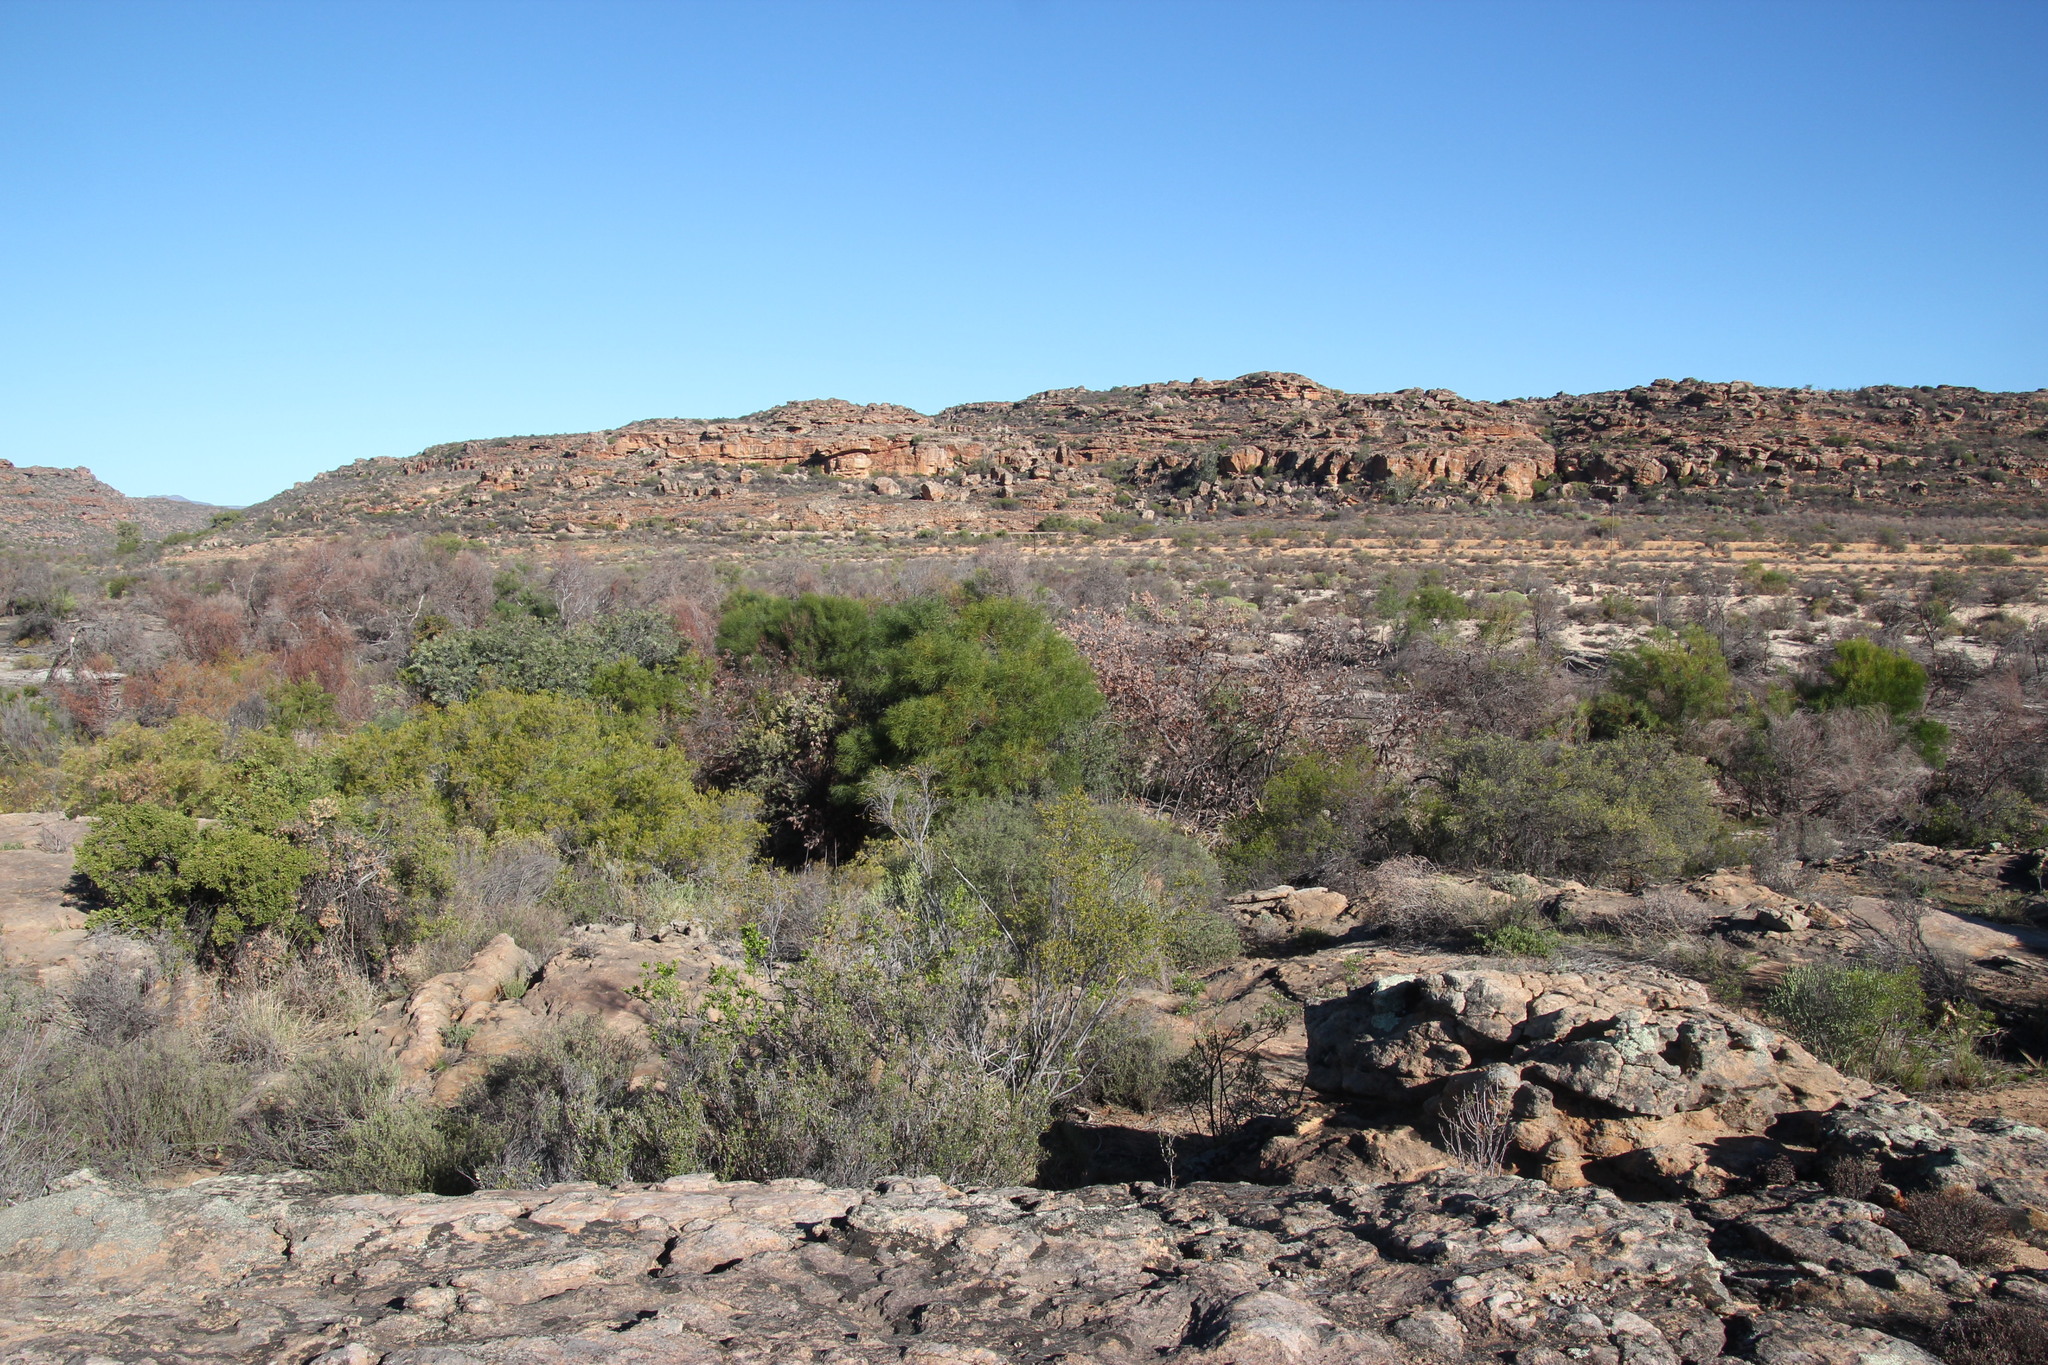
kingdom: Plantae
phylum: Tracheophyta
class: Magnoliopsida
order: Fabales
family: Fabaceae
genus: Acacia
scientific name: Acacia saligna
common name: Orange wattle
